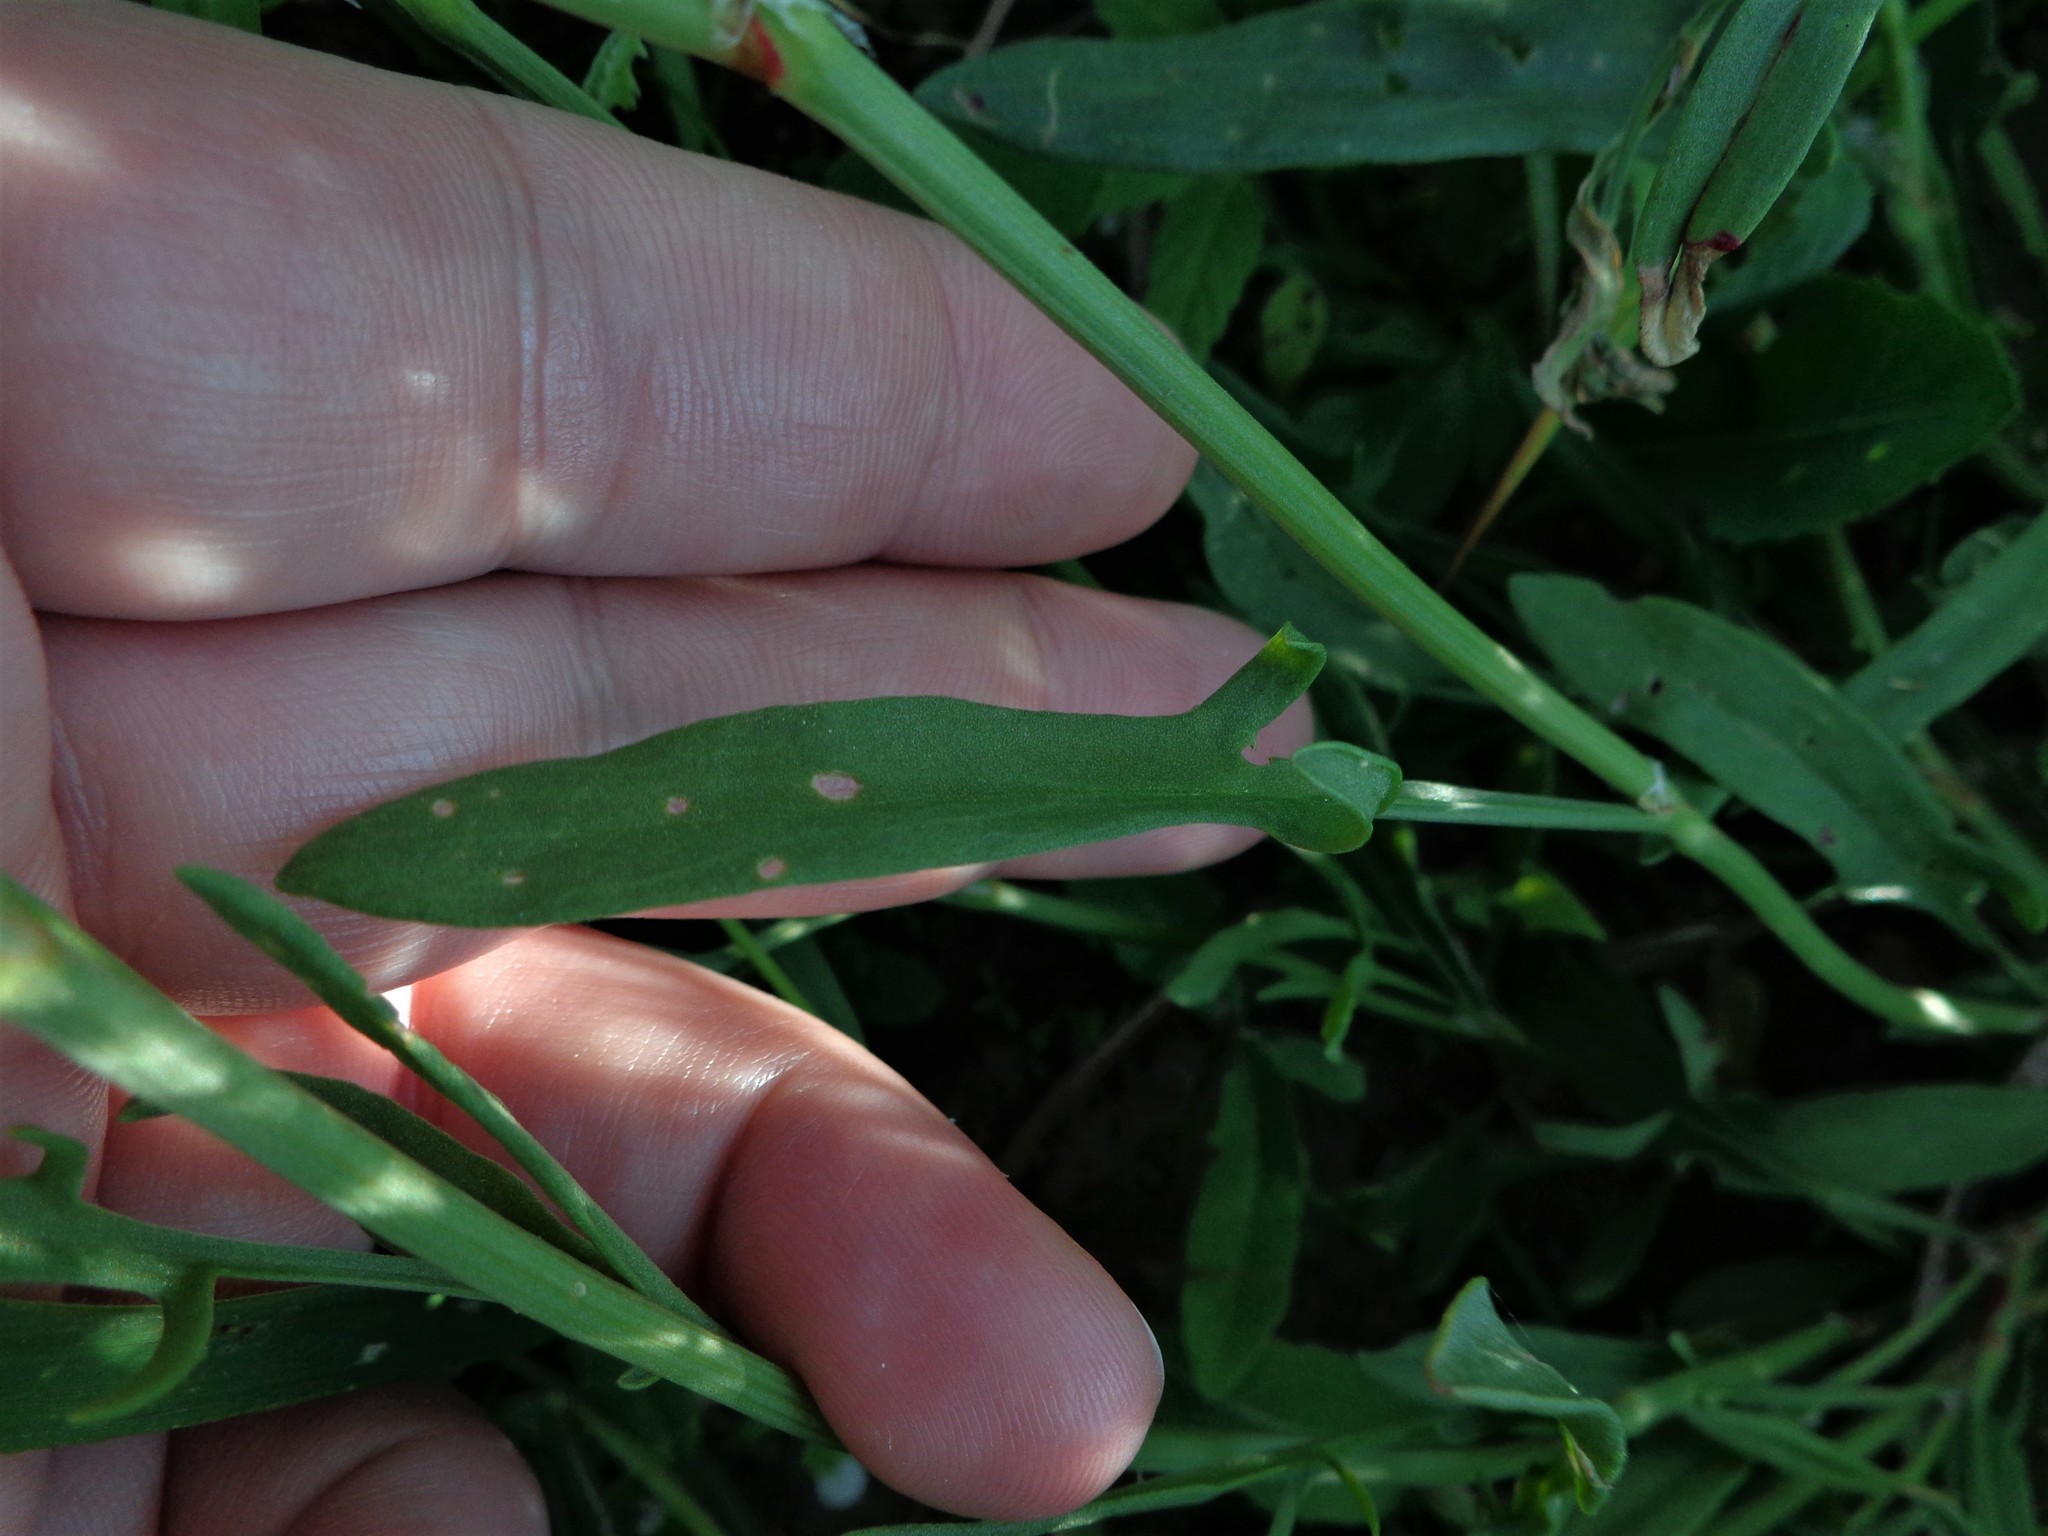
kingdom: Plantae
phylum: Tracheophyta
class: Magnoliopsida
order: Caryophyllales
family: Polygonaceae
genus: Rumex
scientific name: Rumex acetosella
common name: Common sheep sorrel
